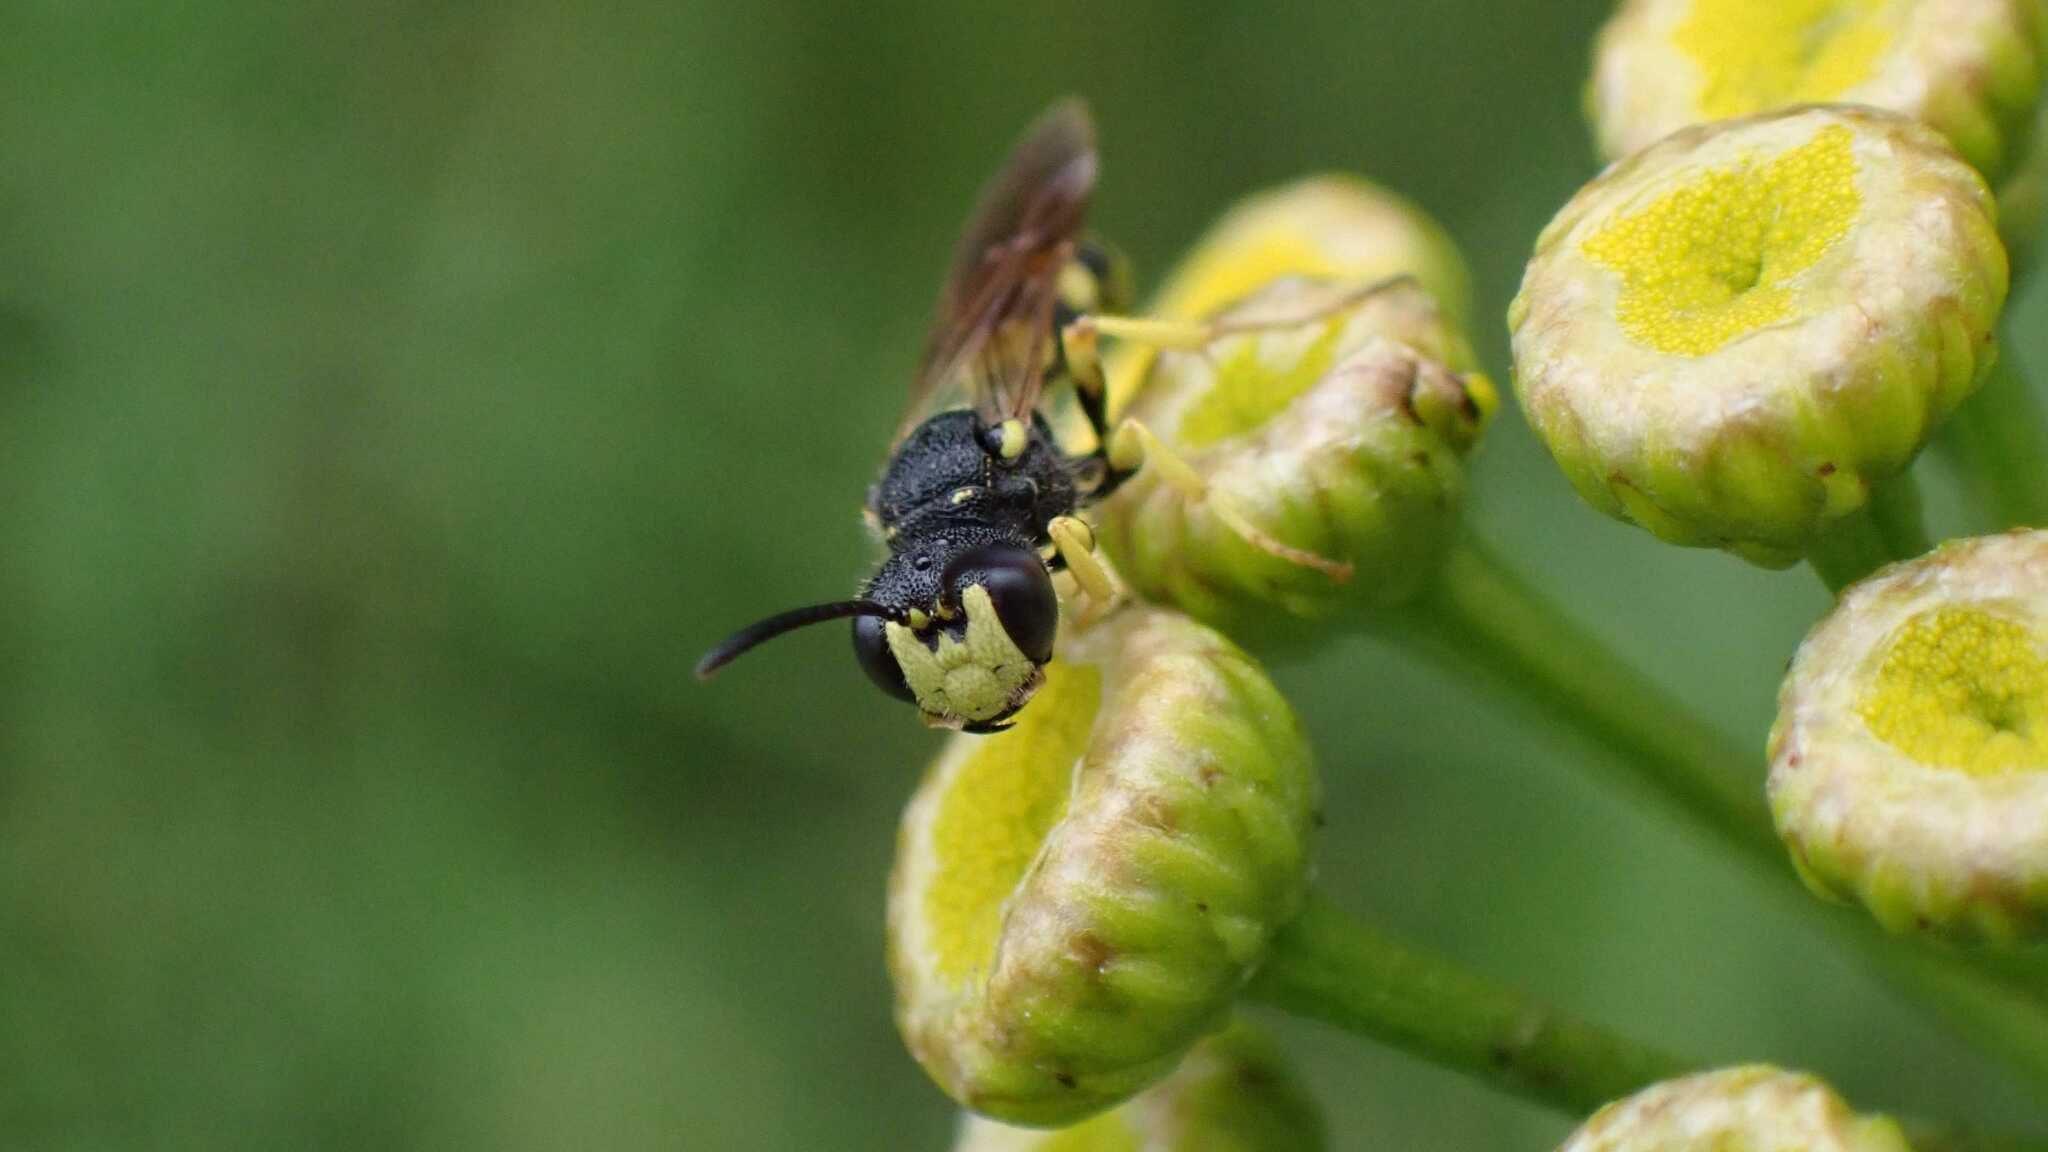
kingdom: Animalia
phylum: Arthropoda
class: Insecta
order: Hymenoptera
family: Crabronidae
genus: Cerceris
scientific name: Cerceris rybyensis
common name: Ornate tailed digger wasp
